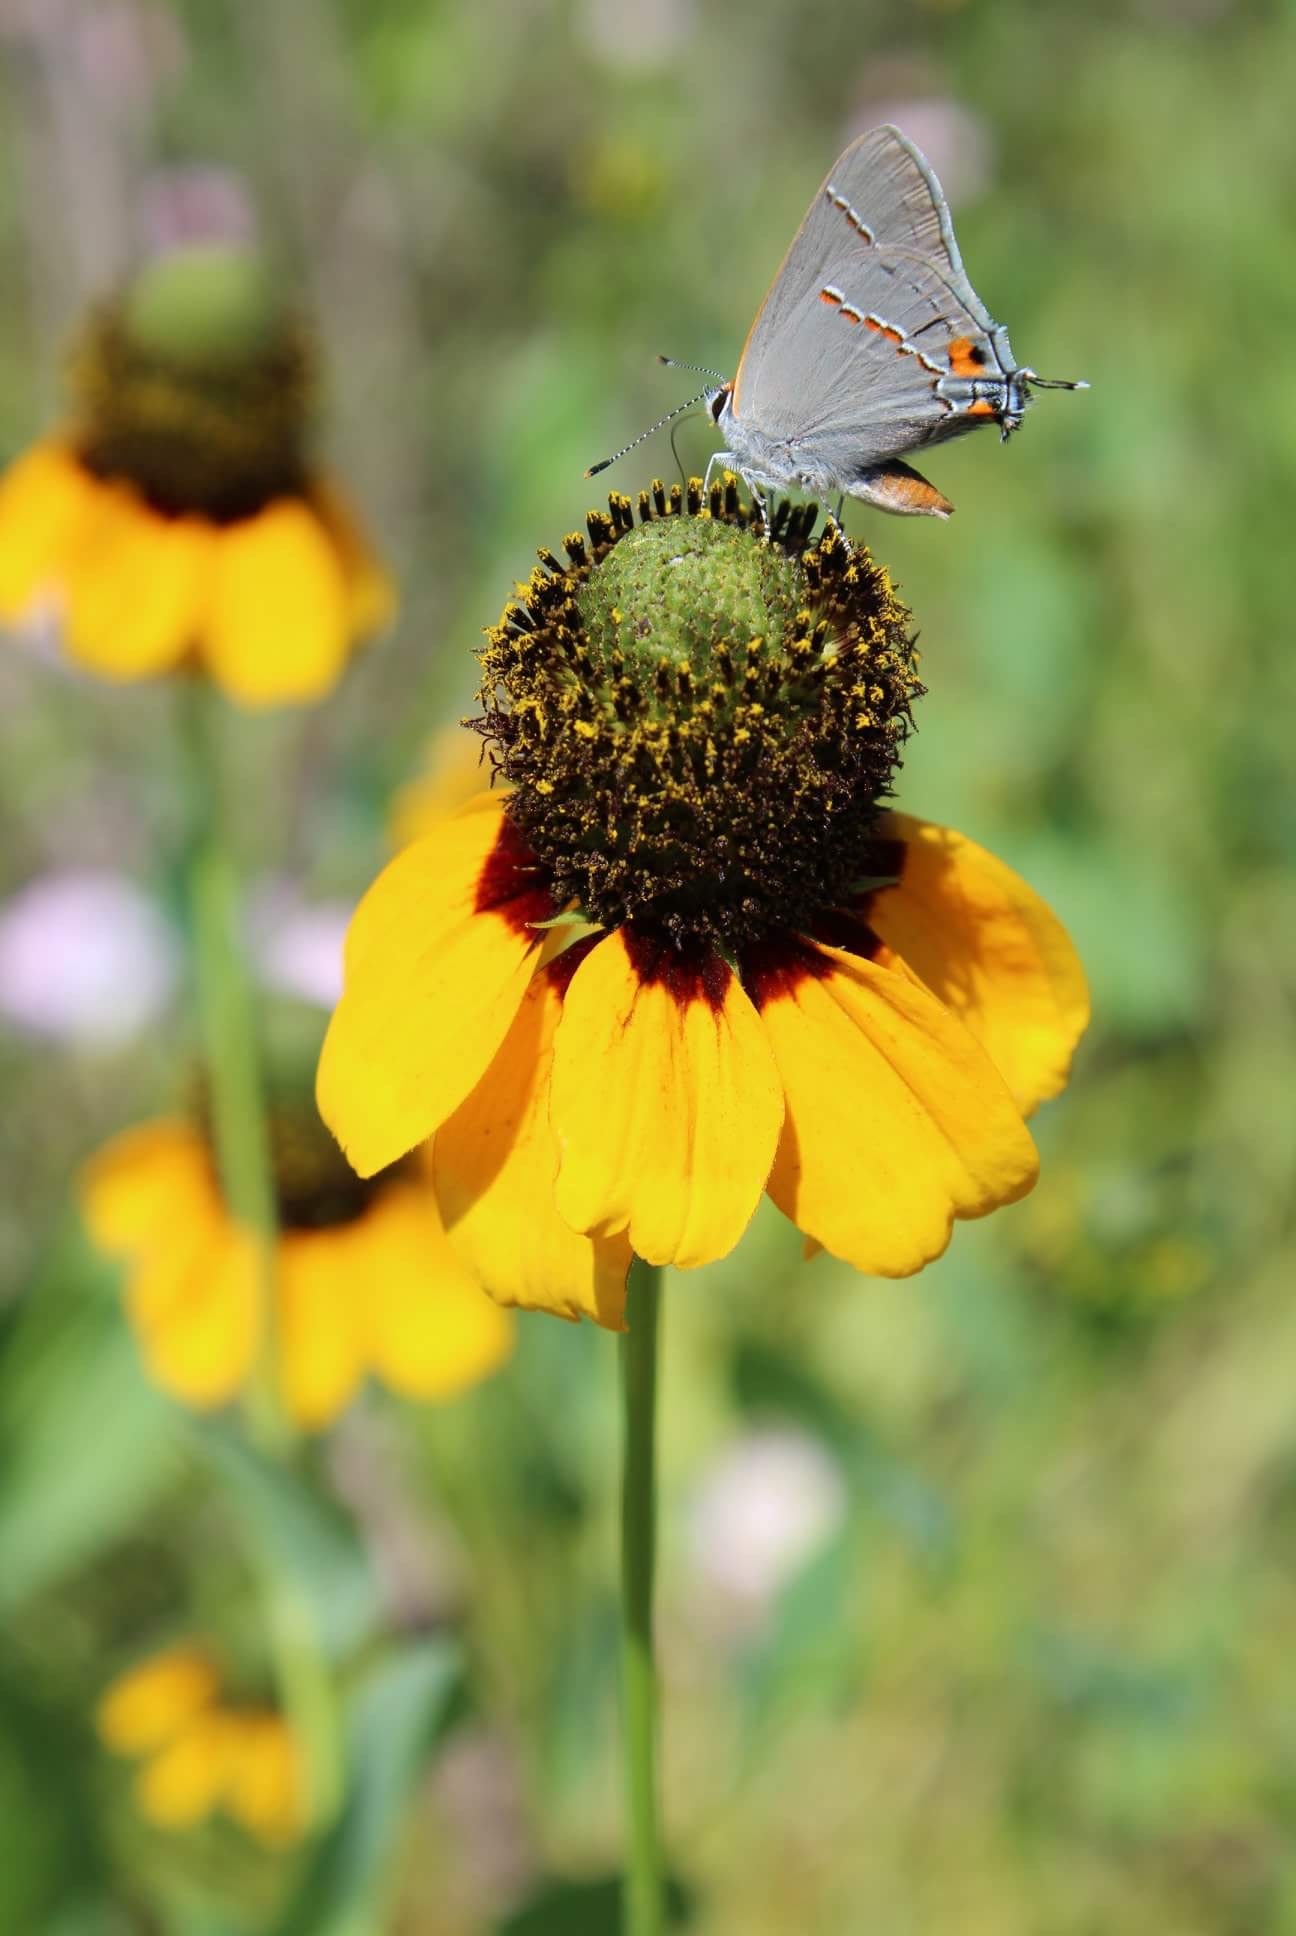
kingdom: Animalia
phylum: Arthropoda
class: Insecta
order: Lepidoptera
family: Lycaenidae
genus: Strymon
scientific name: Strymon melinus
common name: Gray hairstreak
